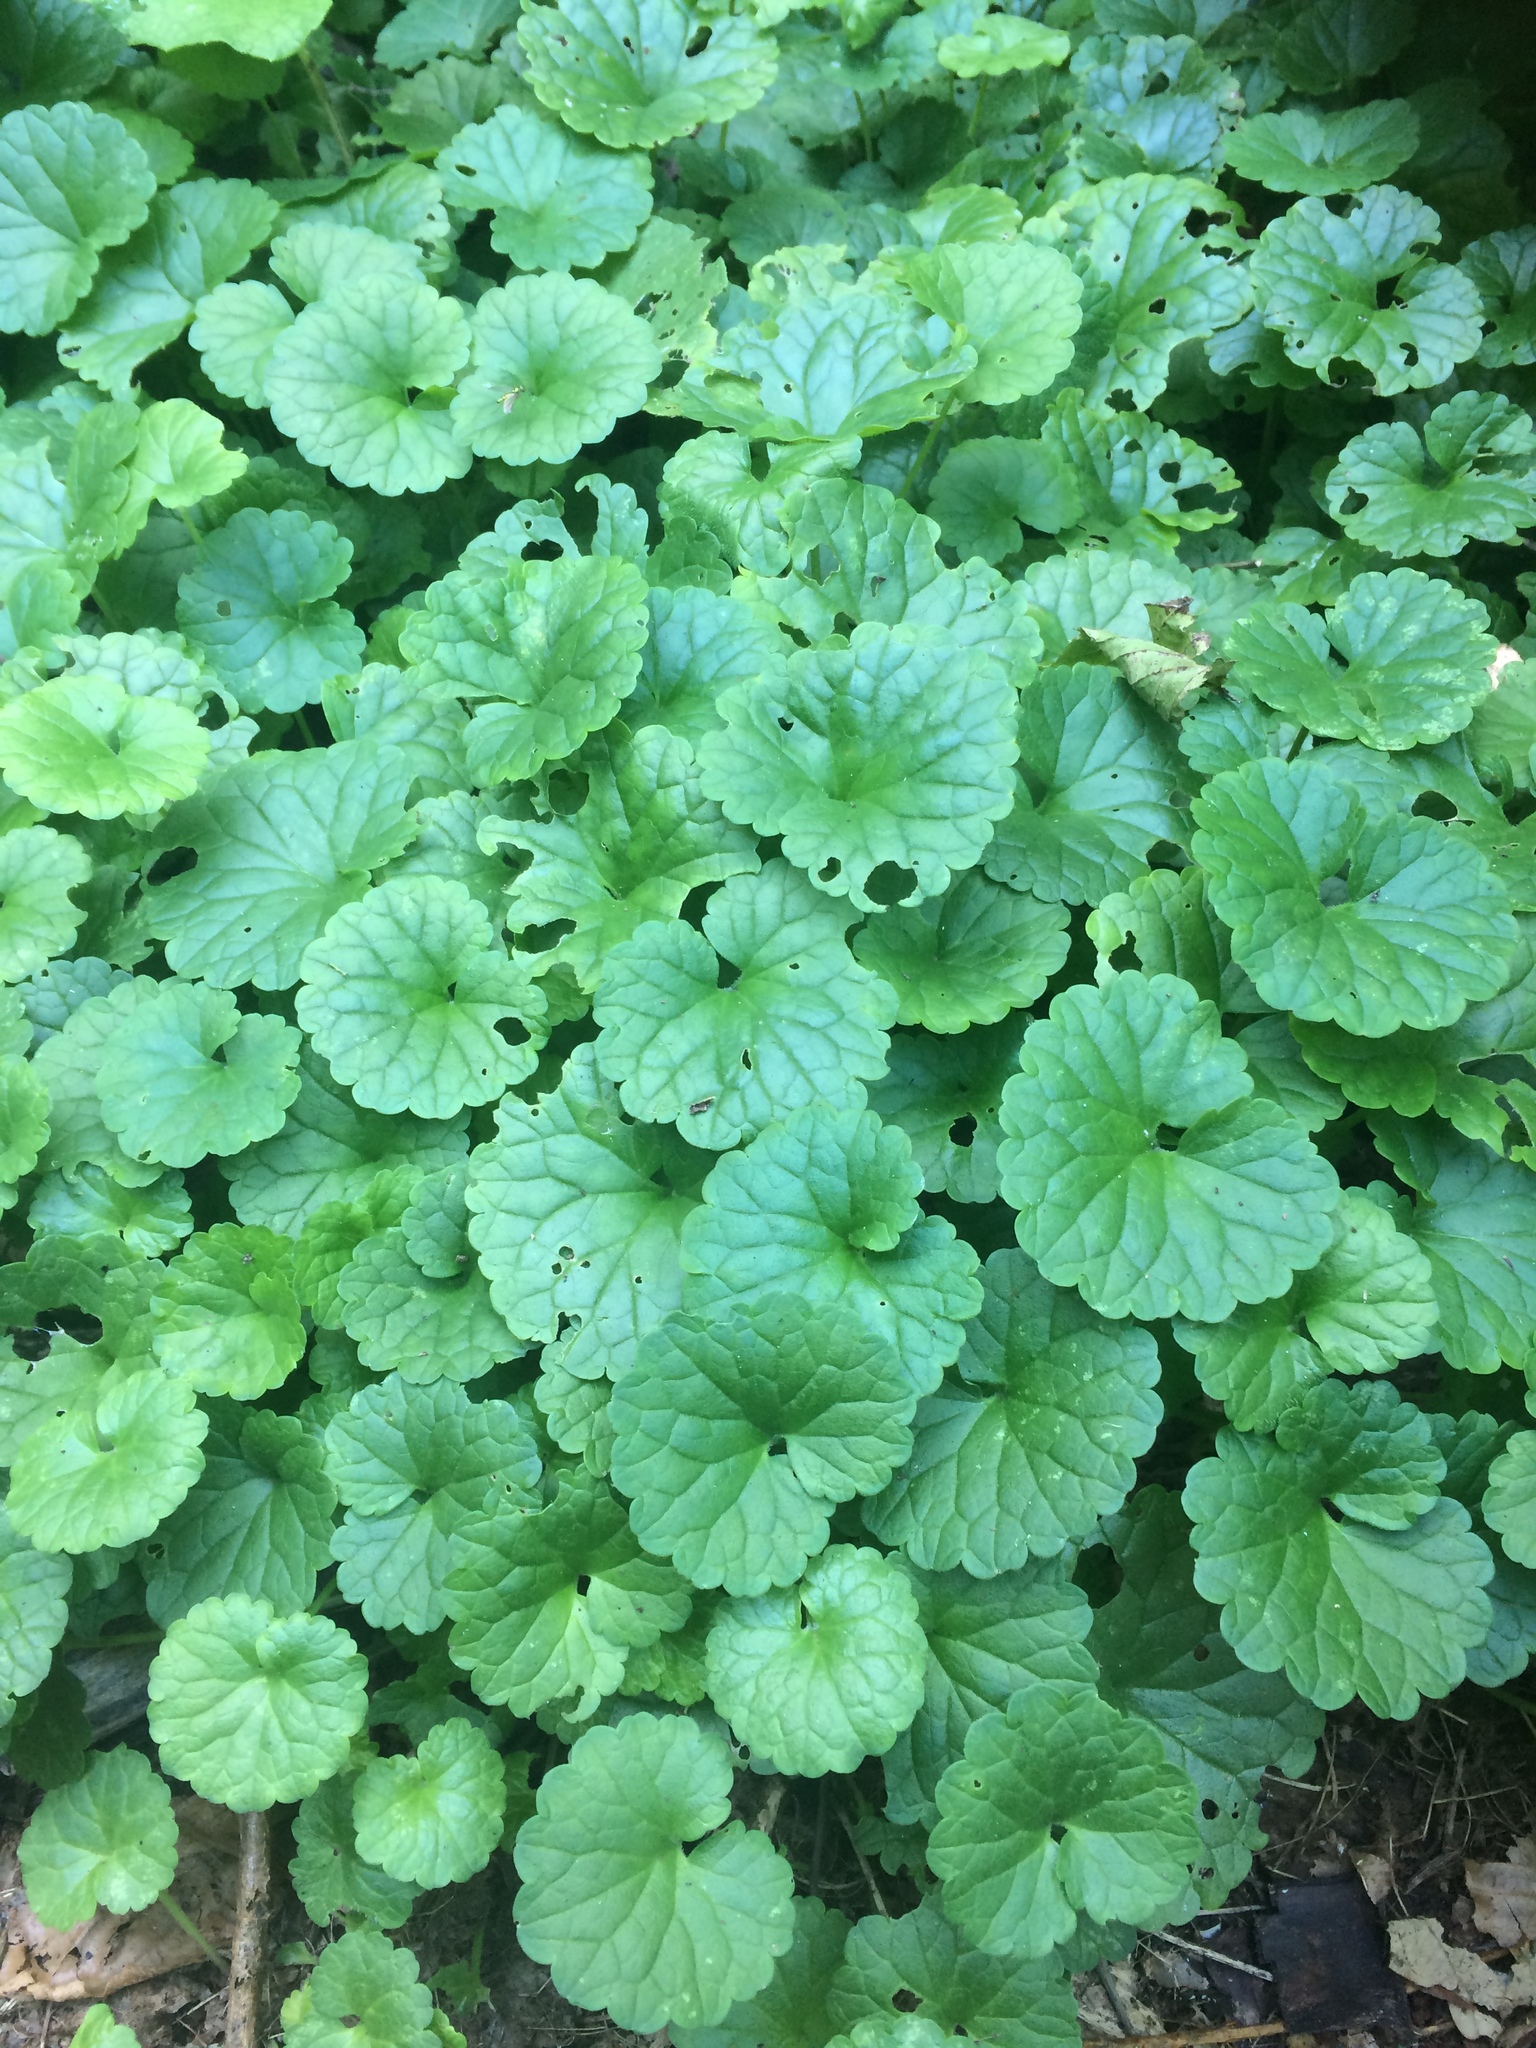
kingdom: Plantae
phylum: Tracheophyta
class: Magnoliopsida
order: Lamiales
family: Lamiaceae
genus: Glechoma
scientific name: Glechoma hederacea
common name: Ground ivy
